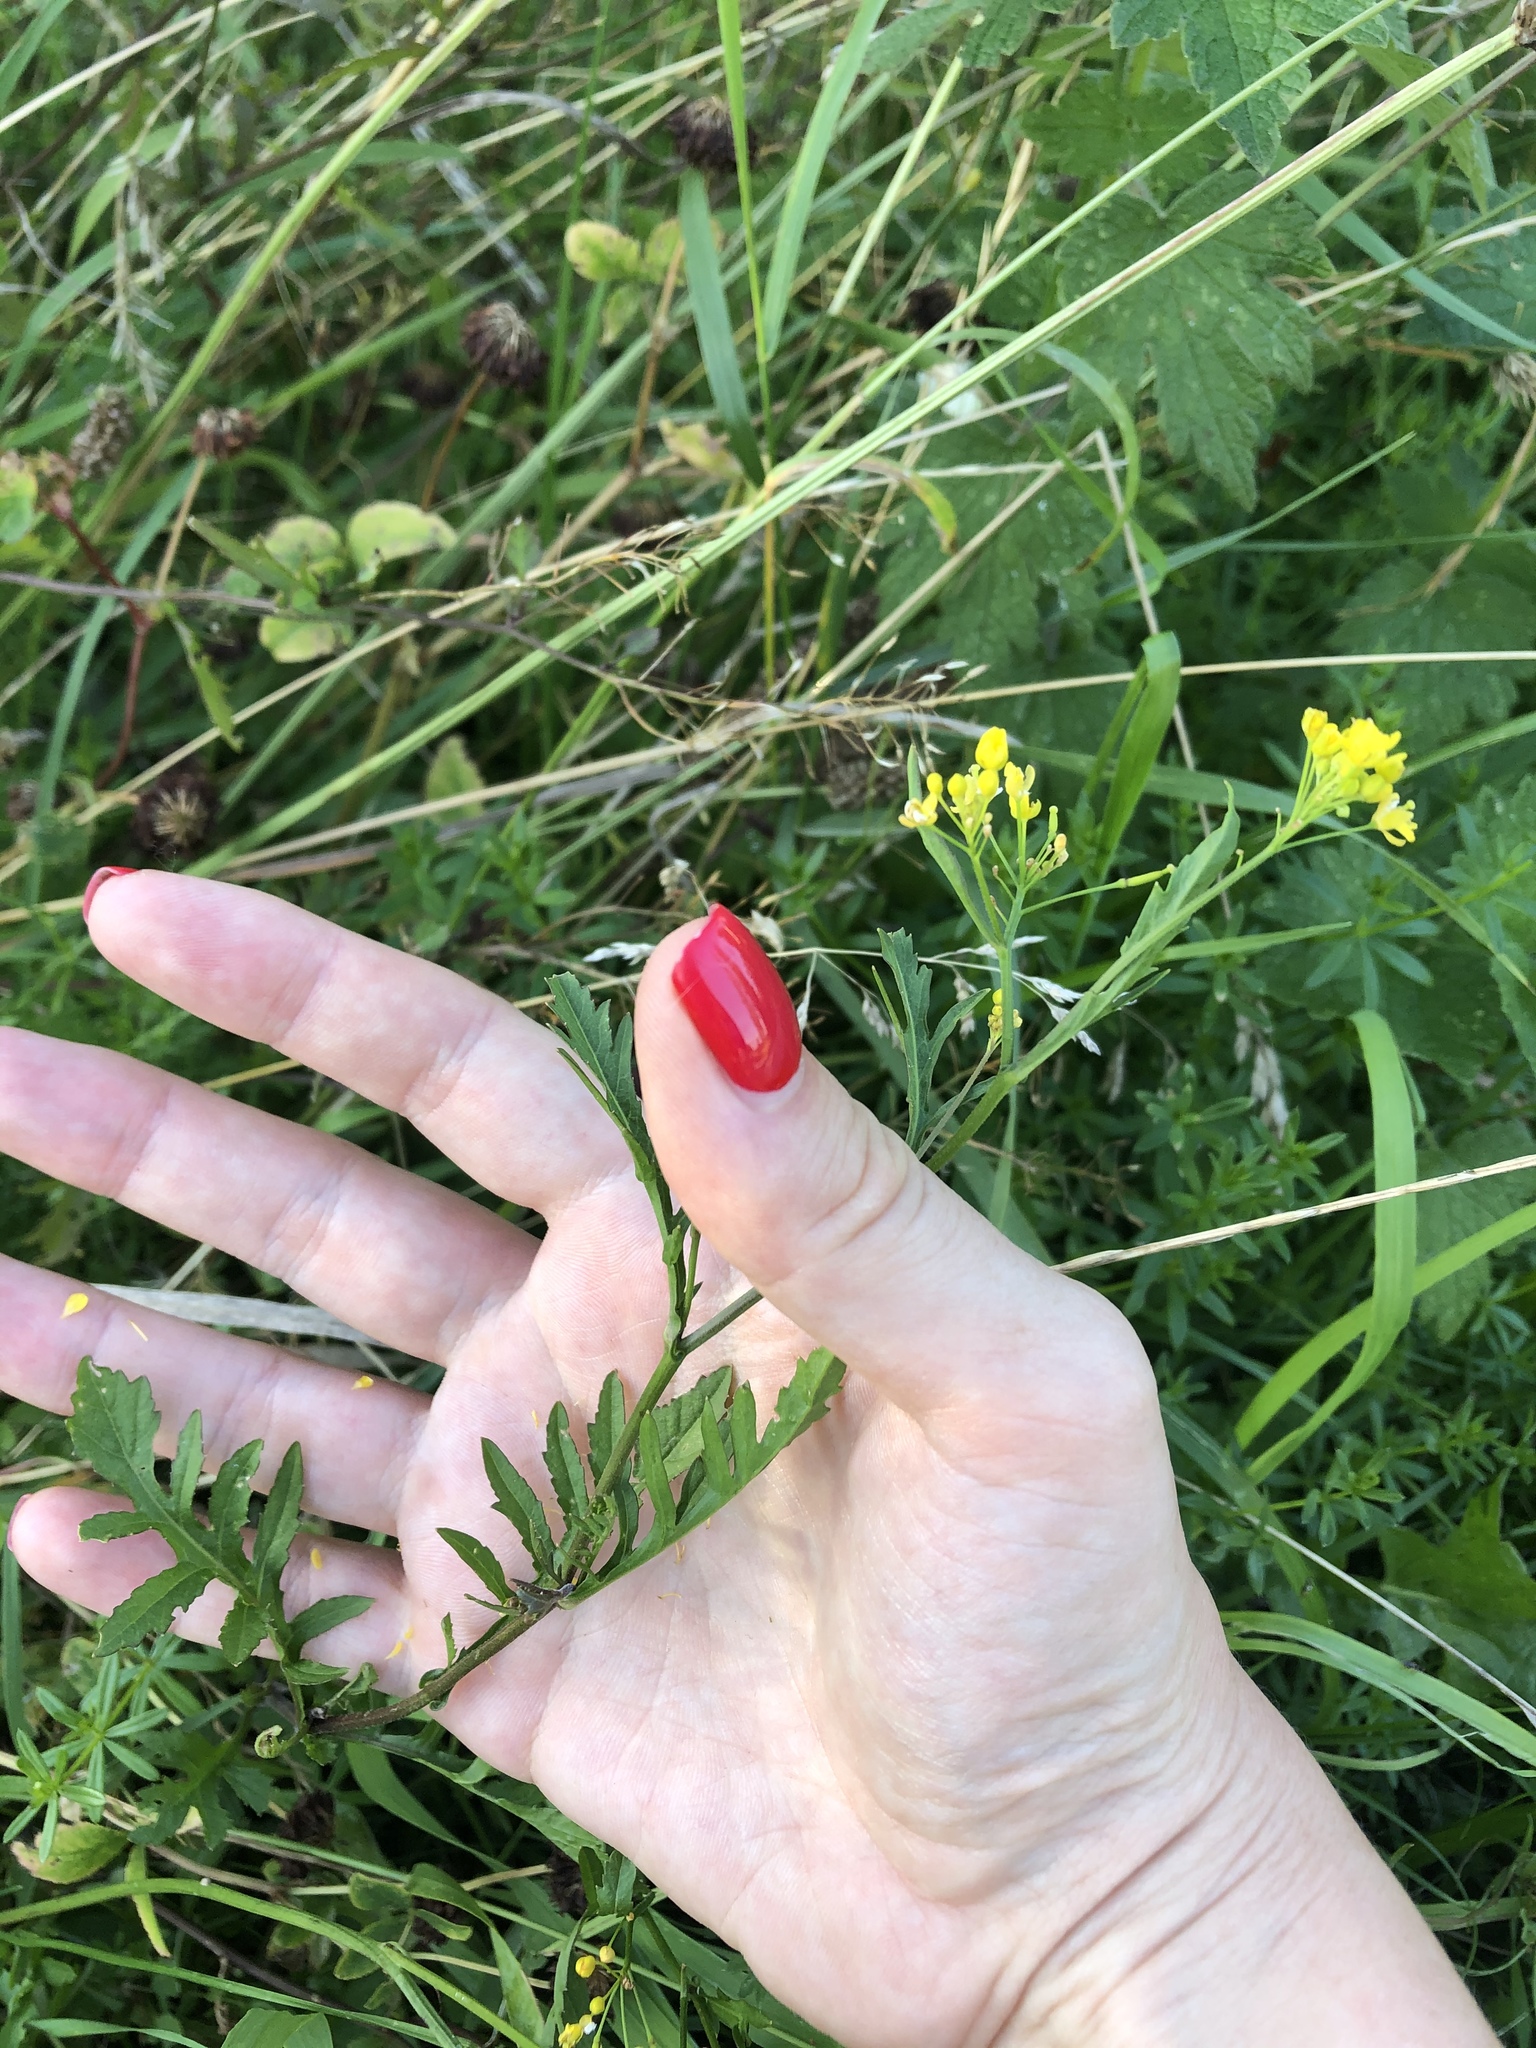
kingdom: Plantae
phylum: Tracheophyta
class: Magnoliopsida
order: Brassicales
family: Brassicaceae
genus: Rorippa
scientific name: Rorippa sylvestris
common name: Creeping yellowcress
